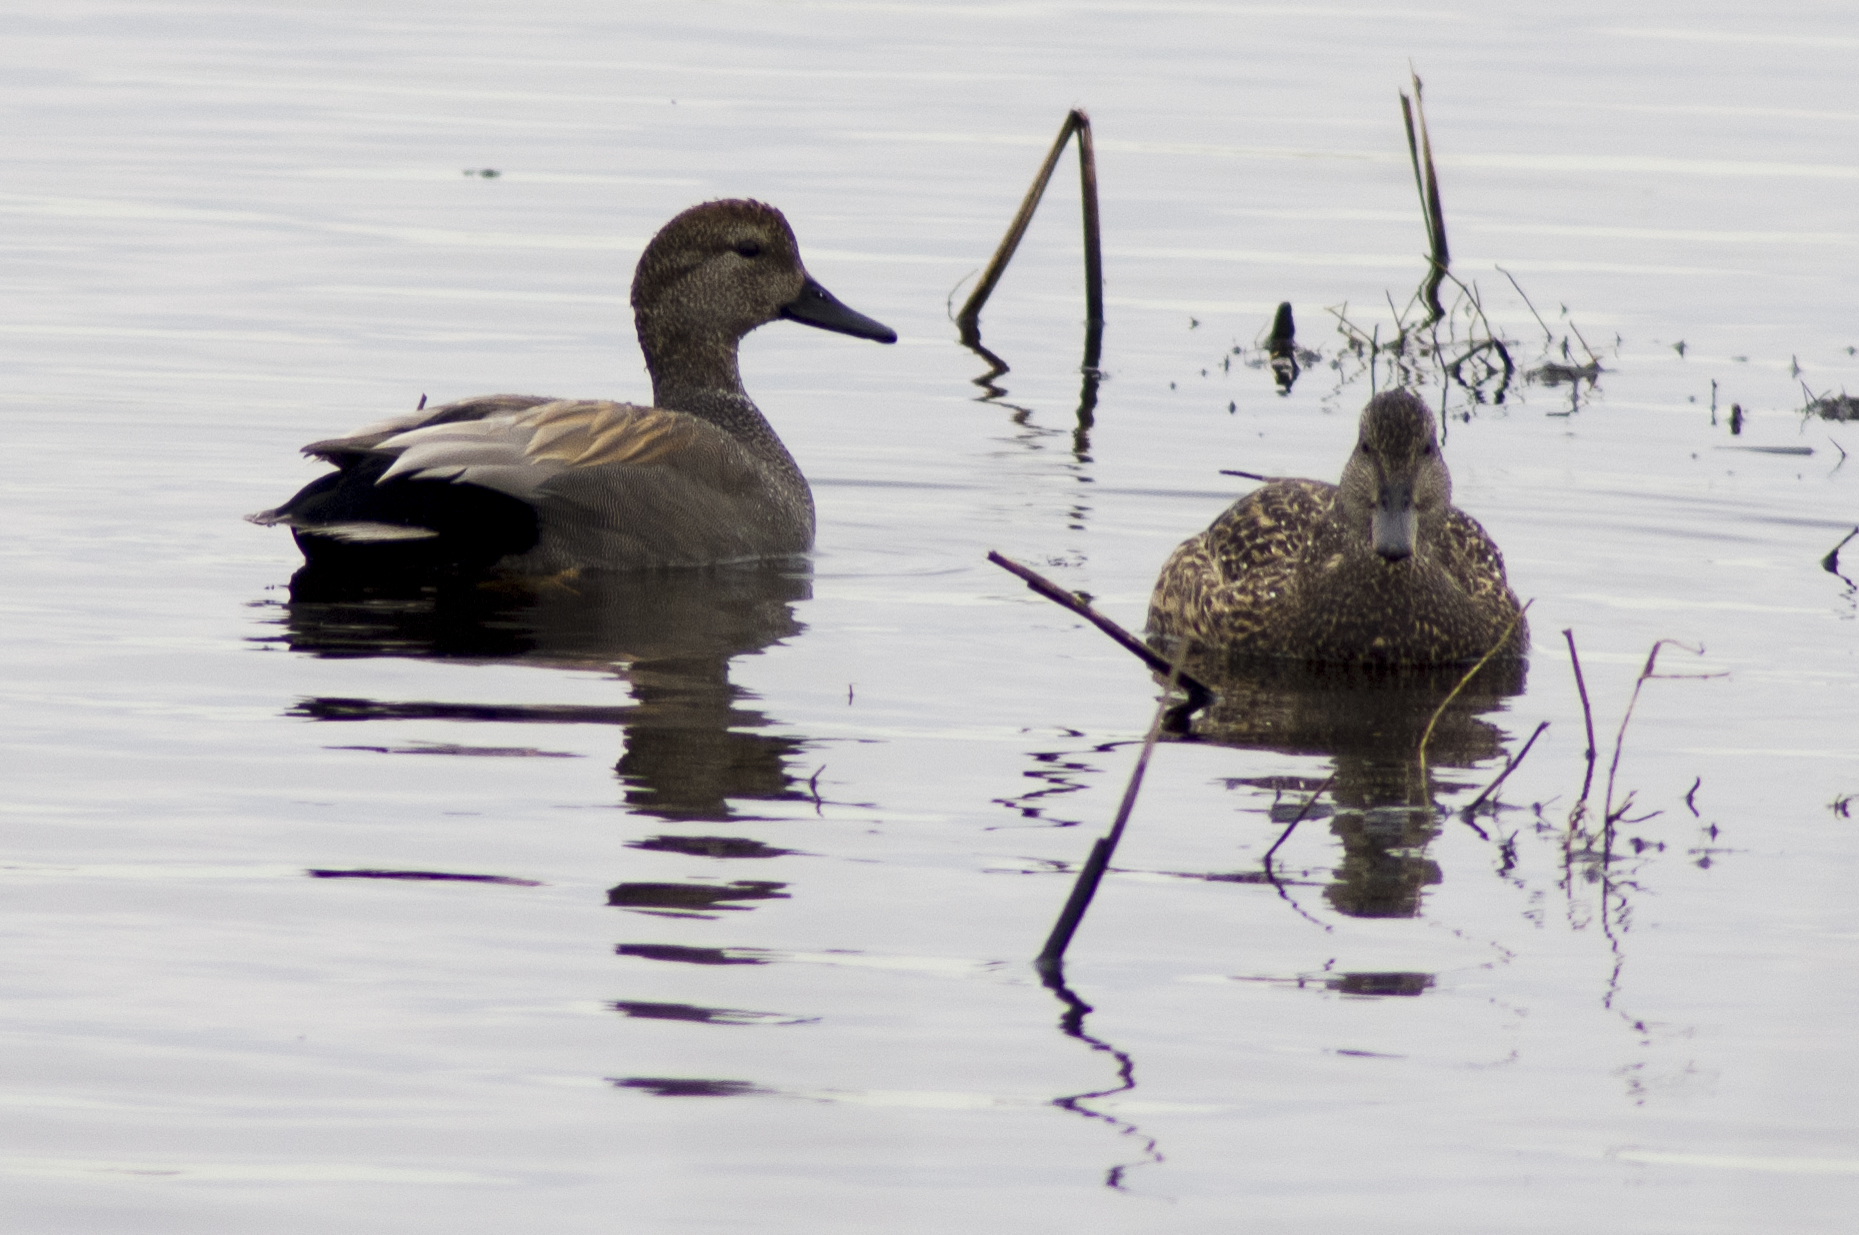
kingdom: Animalia
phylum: Chordata
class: Aves
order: Anseriformes
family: Anatidae
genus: Mareca
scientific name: Mareca strepera
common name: Gadwall
